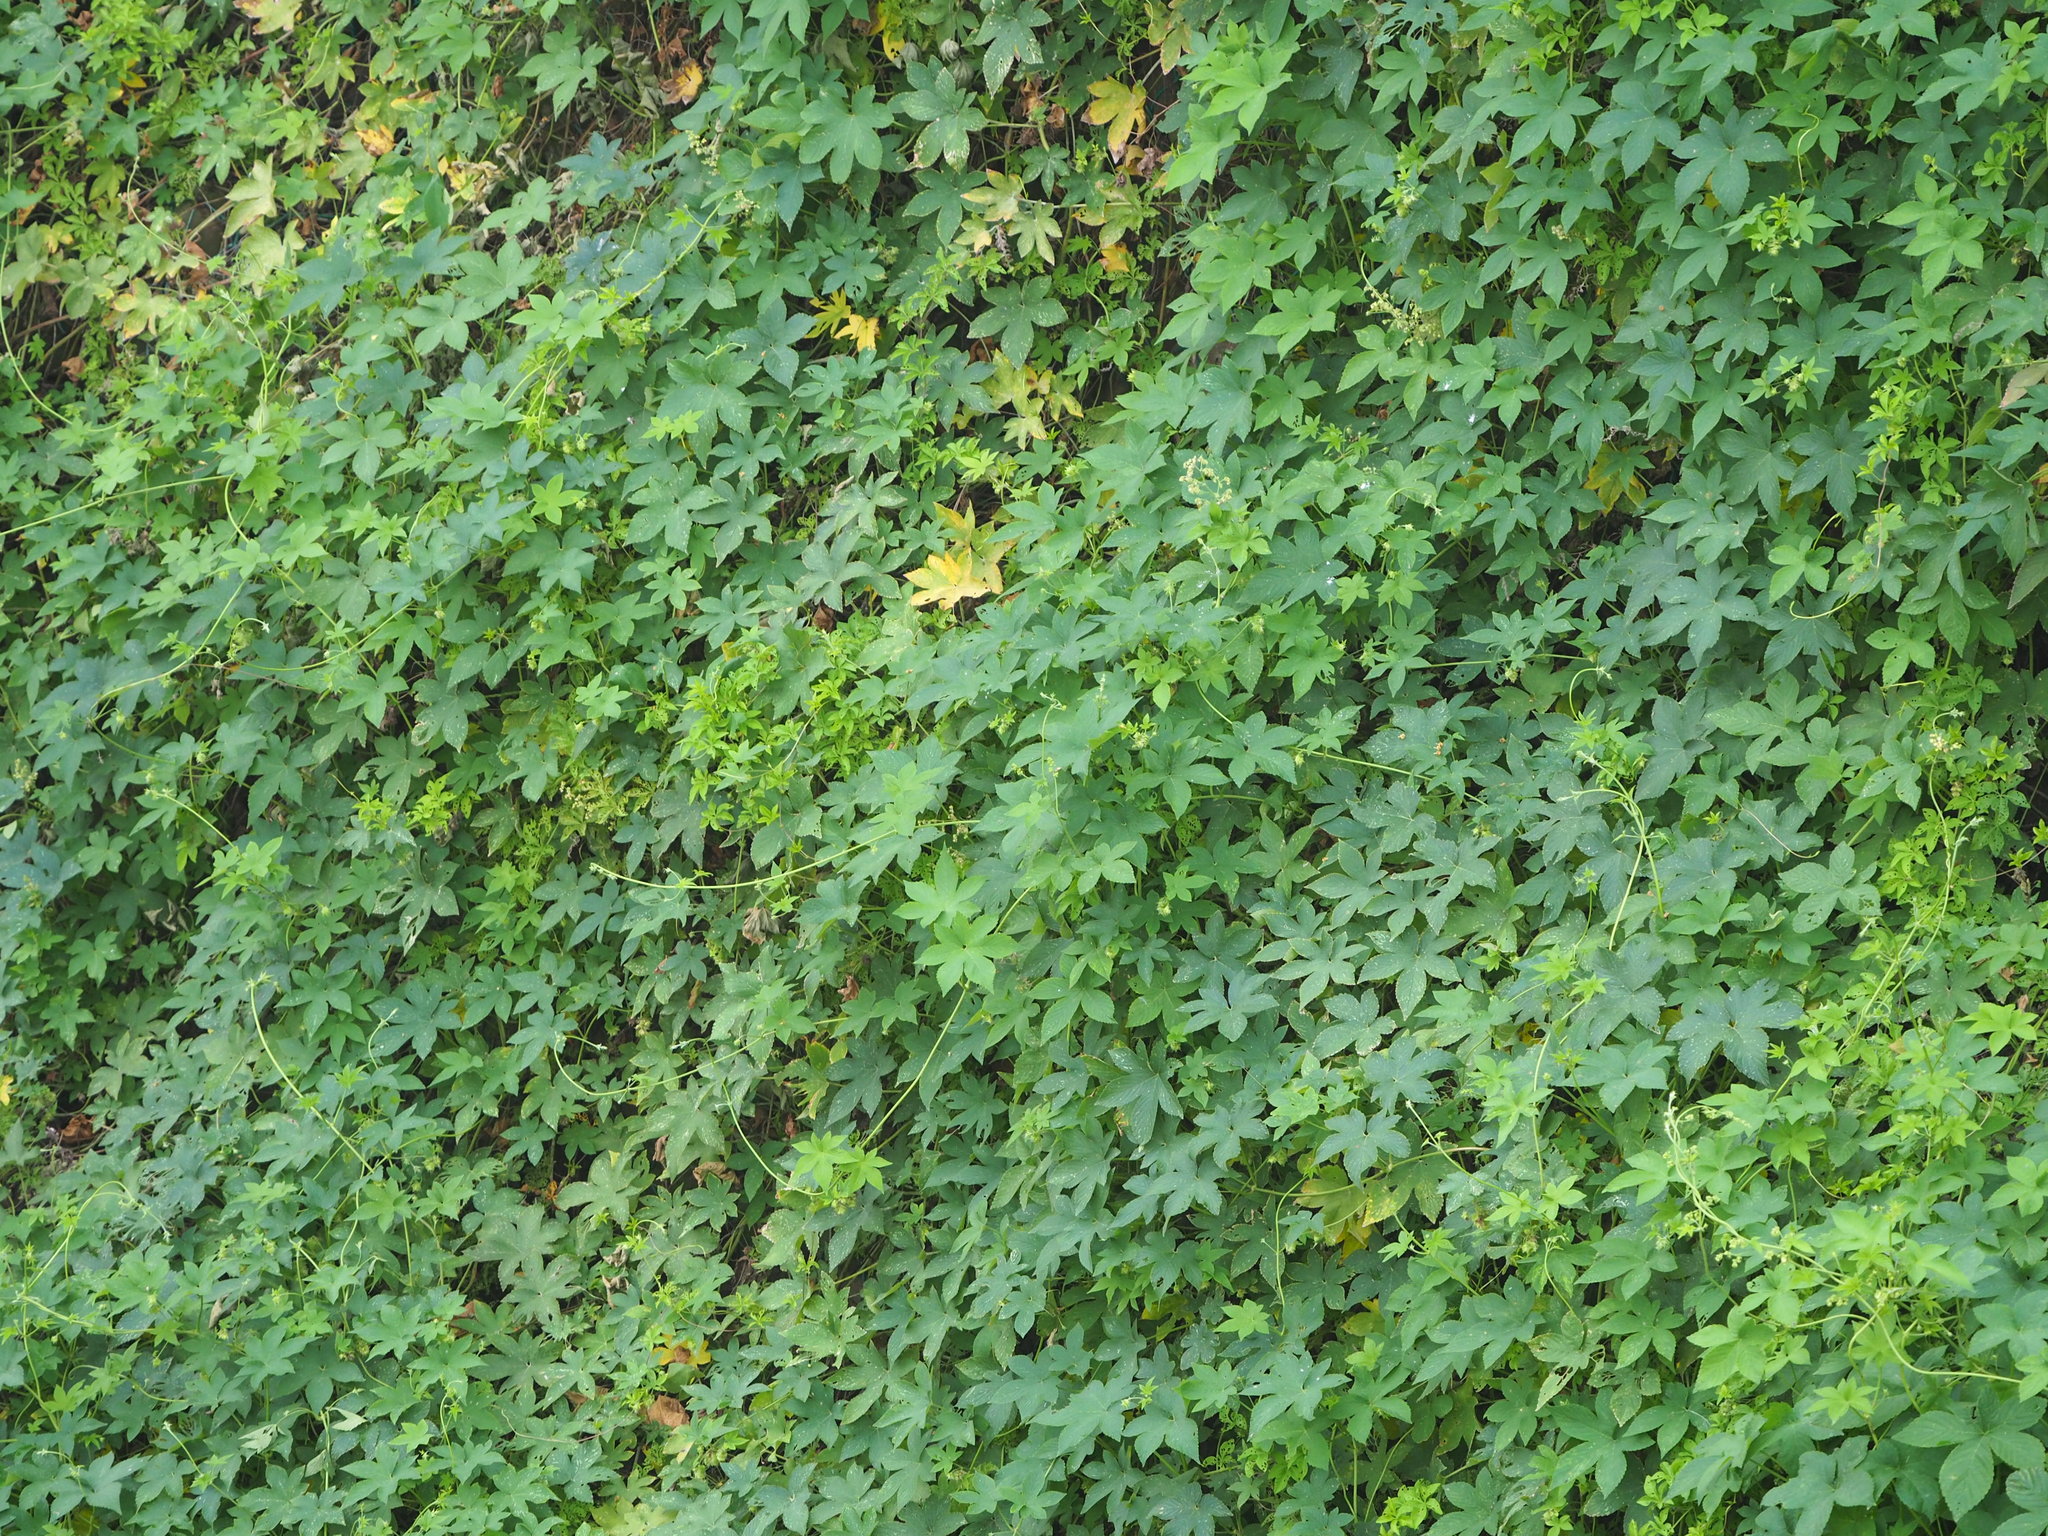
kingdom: Plantae
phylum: Tracheophyta
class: Magnoliopsida
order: Rosales
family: Cannabaceae
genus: Humulus
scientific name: Humulus scandens
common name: Japanese hop
